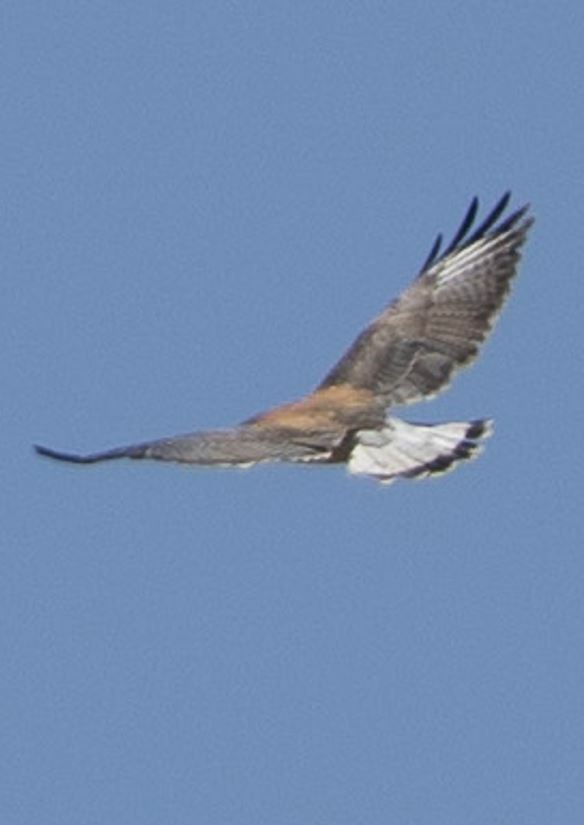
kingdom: Animalia
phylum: Chordata
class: Aves
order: Accipitriformes
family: Accipitridae
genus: Buteo
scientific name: Buteo polyosoma
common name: Variable hawk
